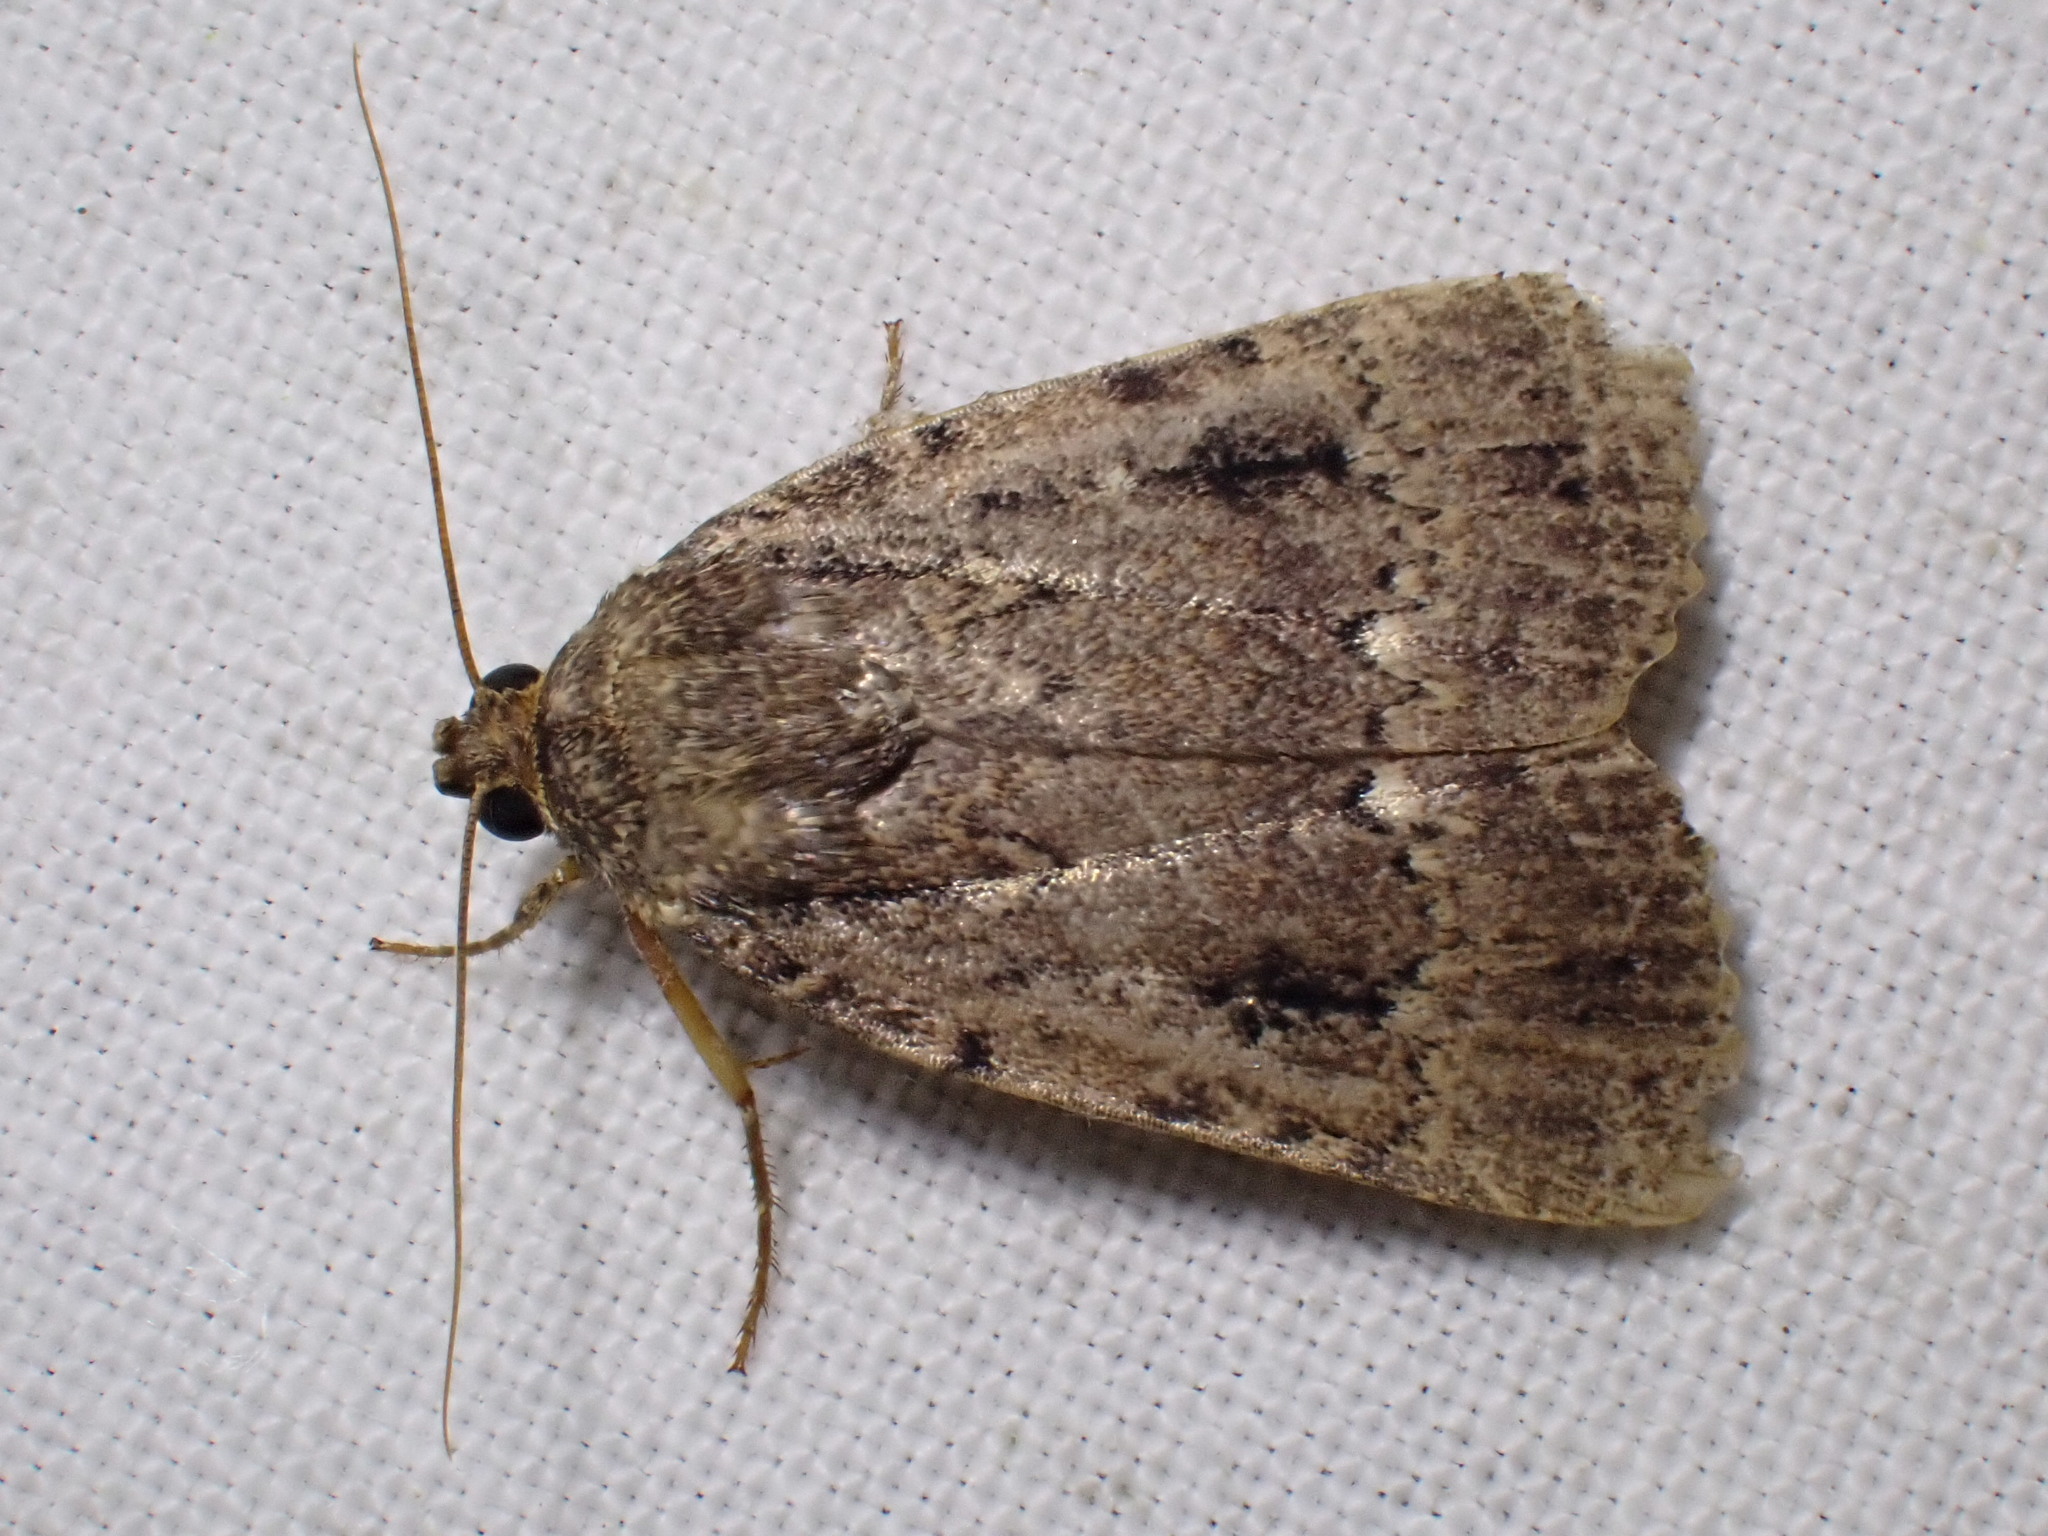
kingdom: Animalia
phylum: Arthropoda
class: Insecta
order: Lepidoptera
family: Noctuidae
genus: Amphipyra
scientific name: Amphipyra pyramidea
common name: Copper underwing
